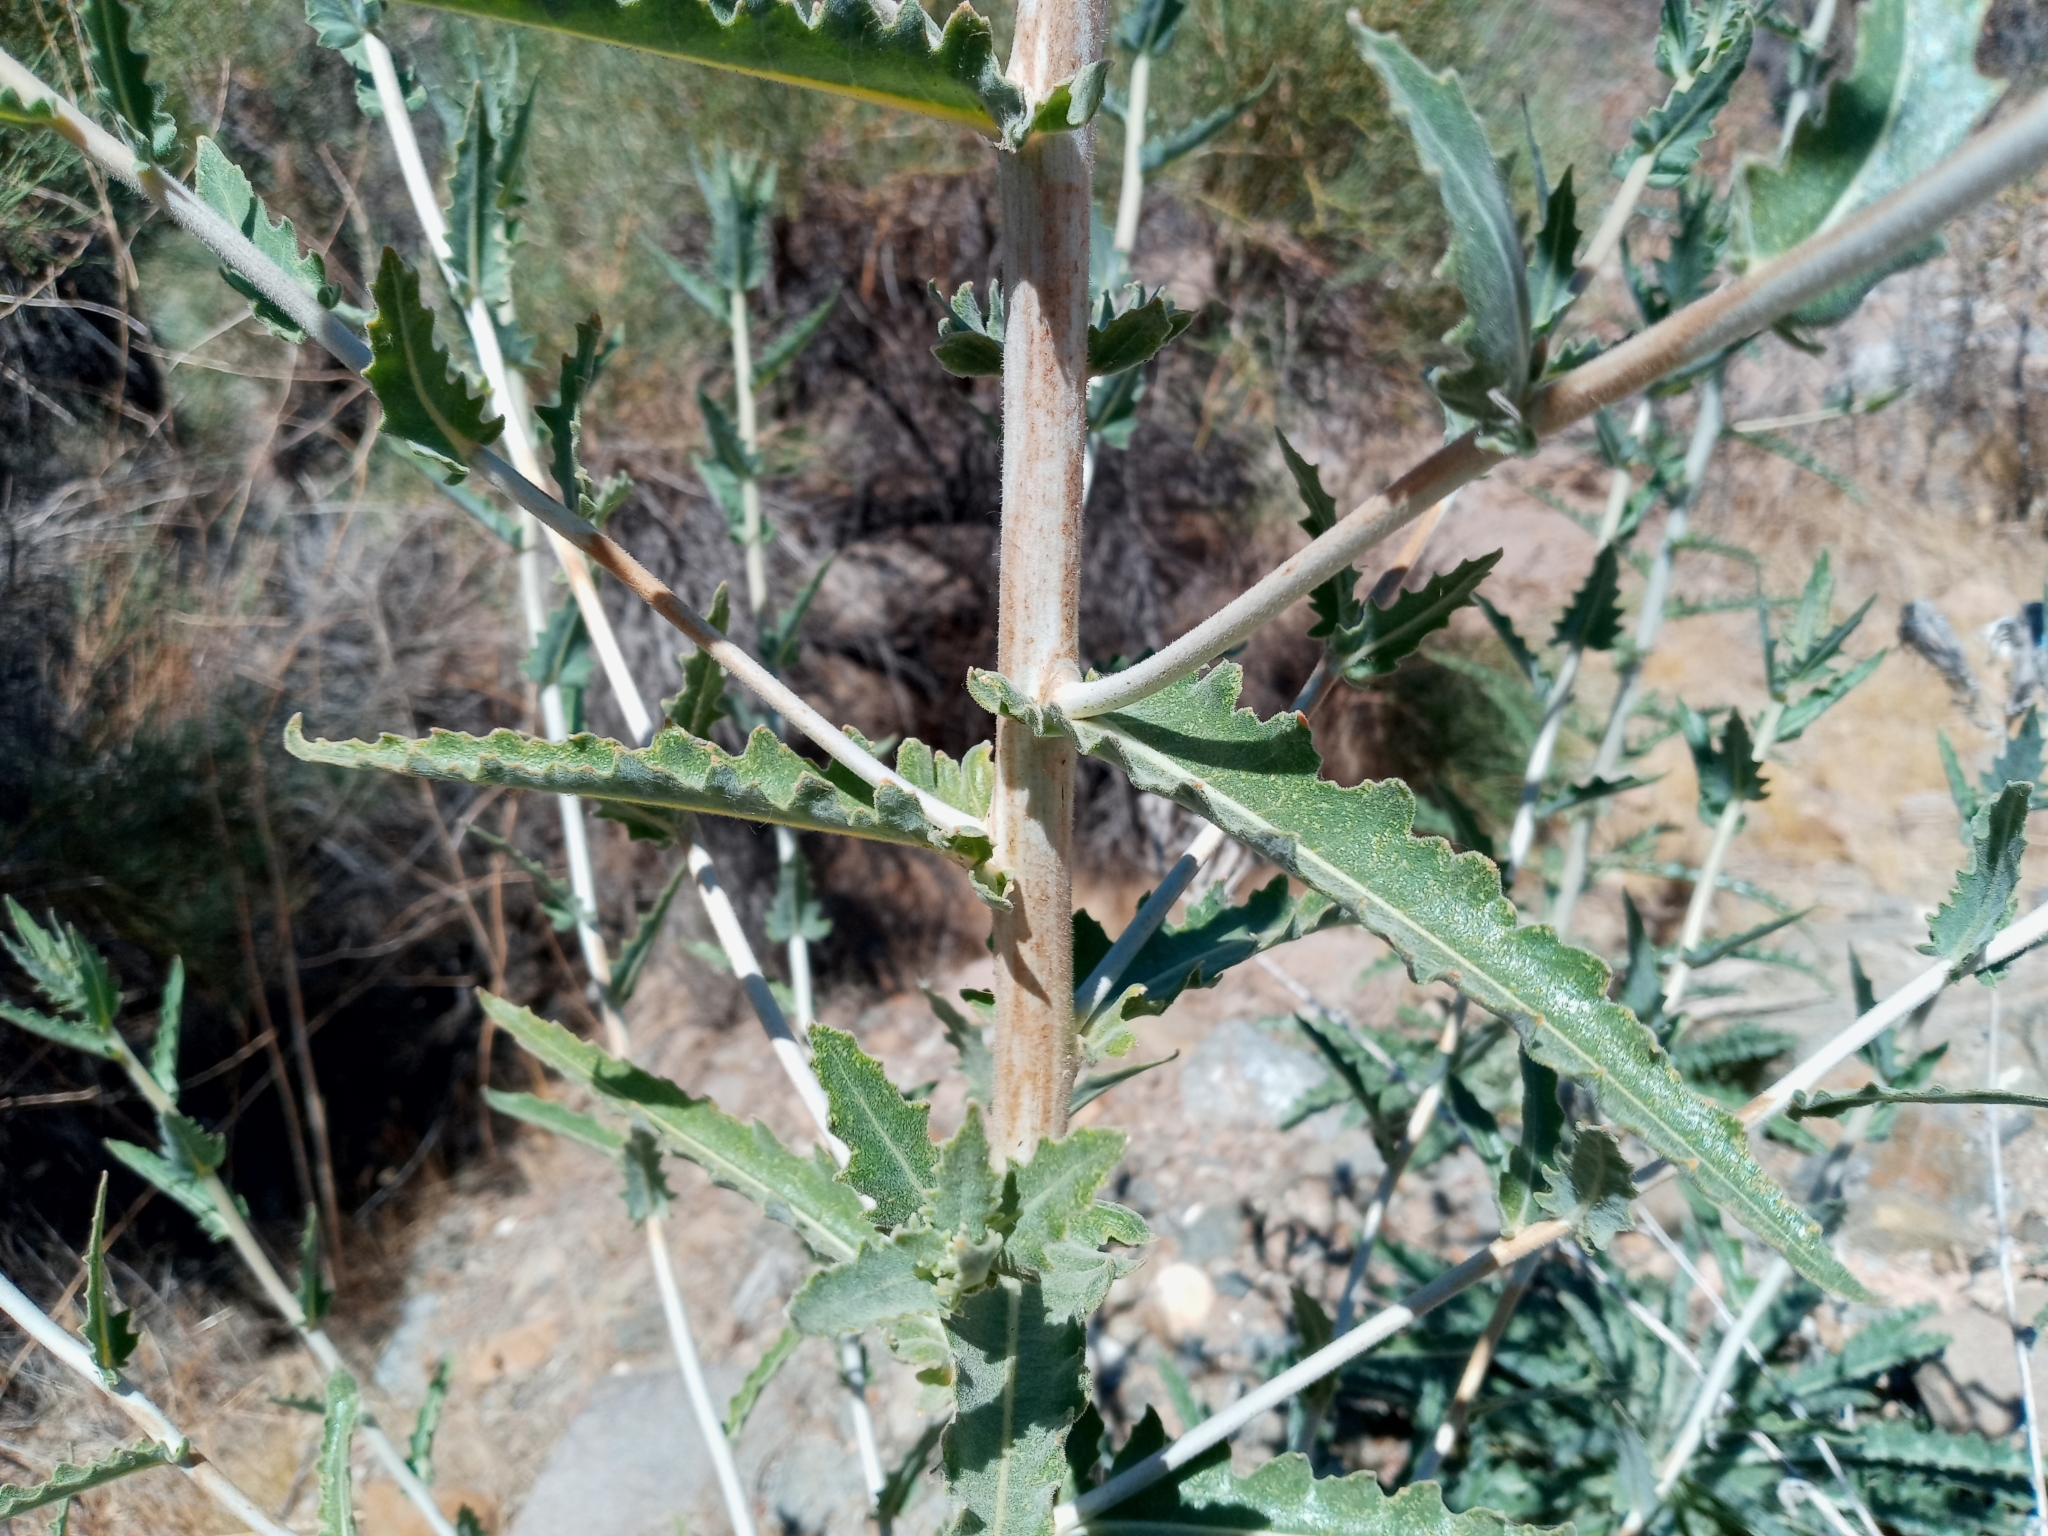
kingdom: Plantae
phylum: Tracheophyta
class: Magnoliopsida
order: Cornales
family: Loasaceae
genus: Mentzelia
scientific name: Mentzelia laevicaulis
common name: Smooth-stem blazingstar
